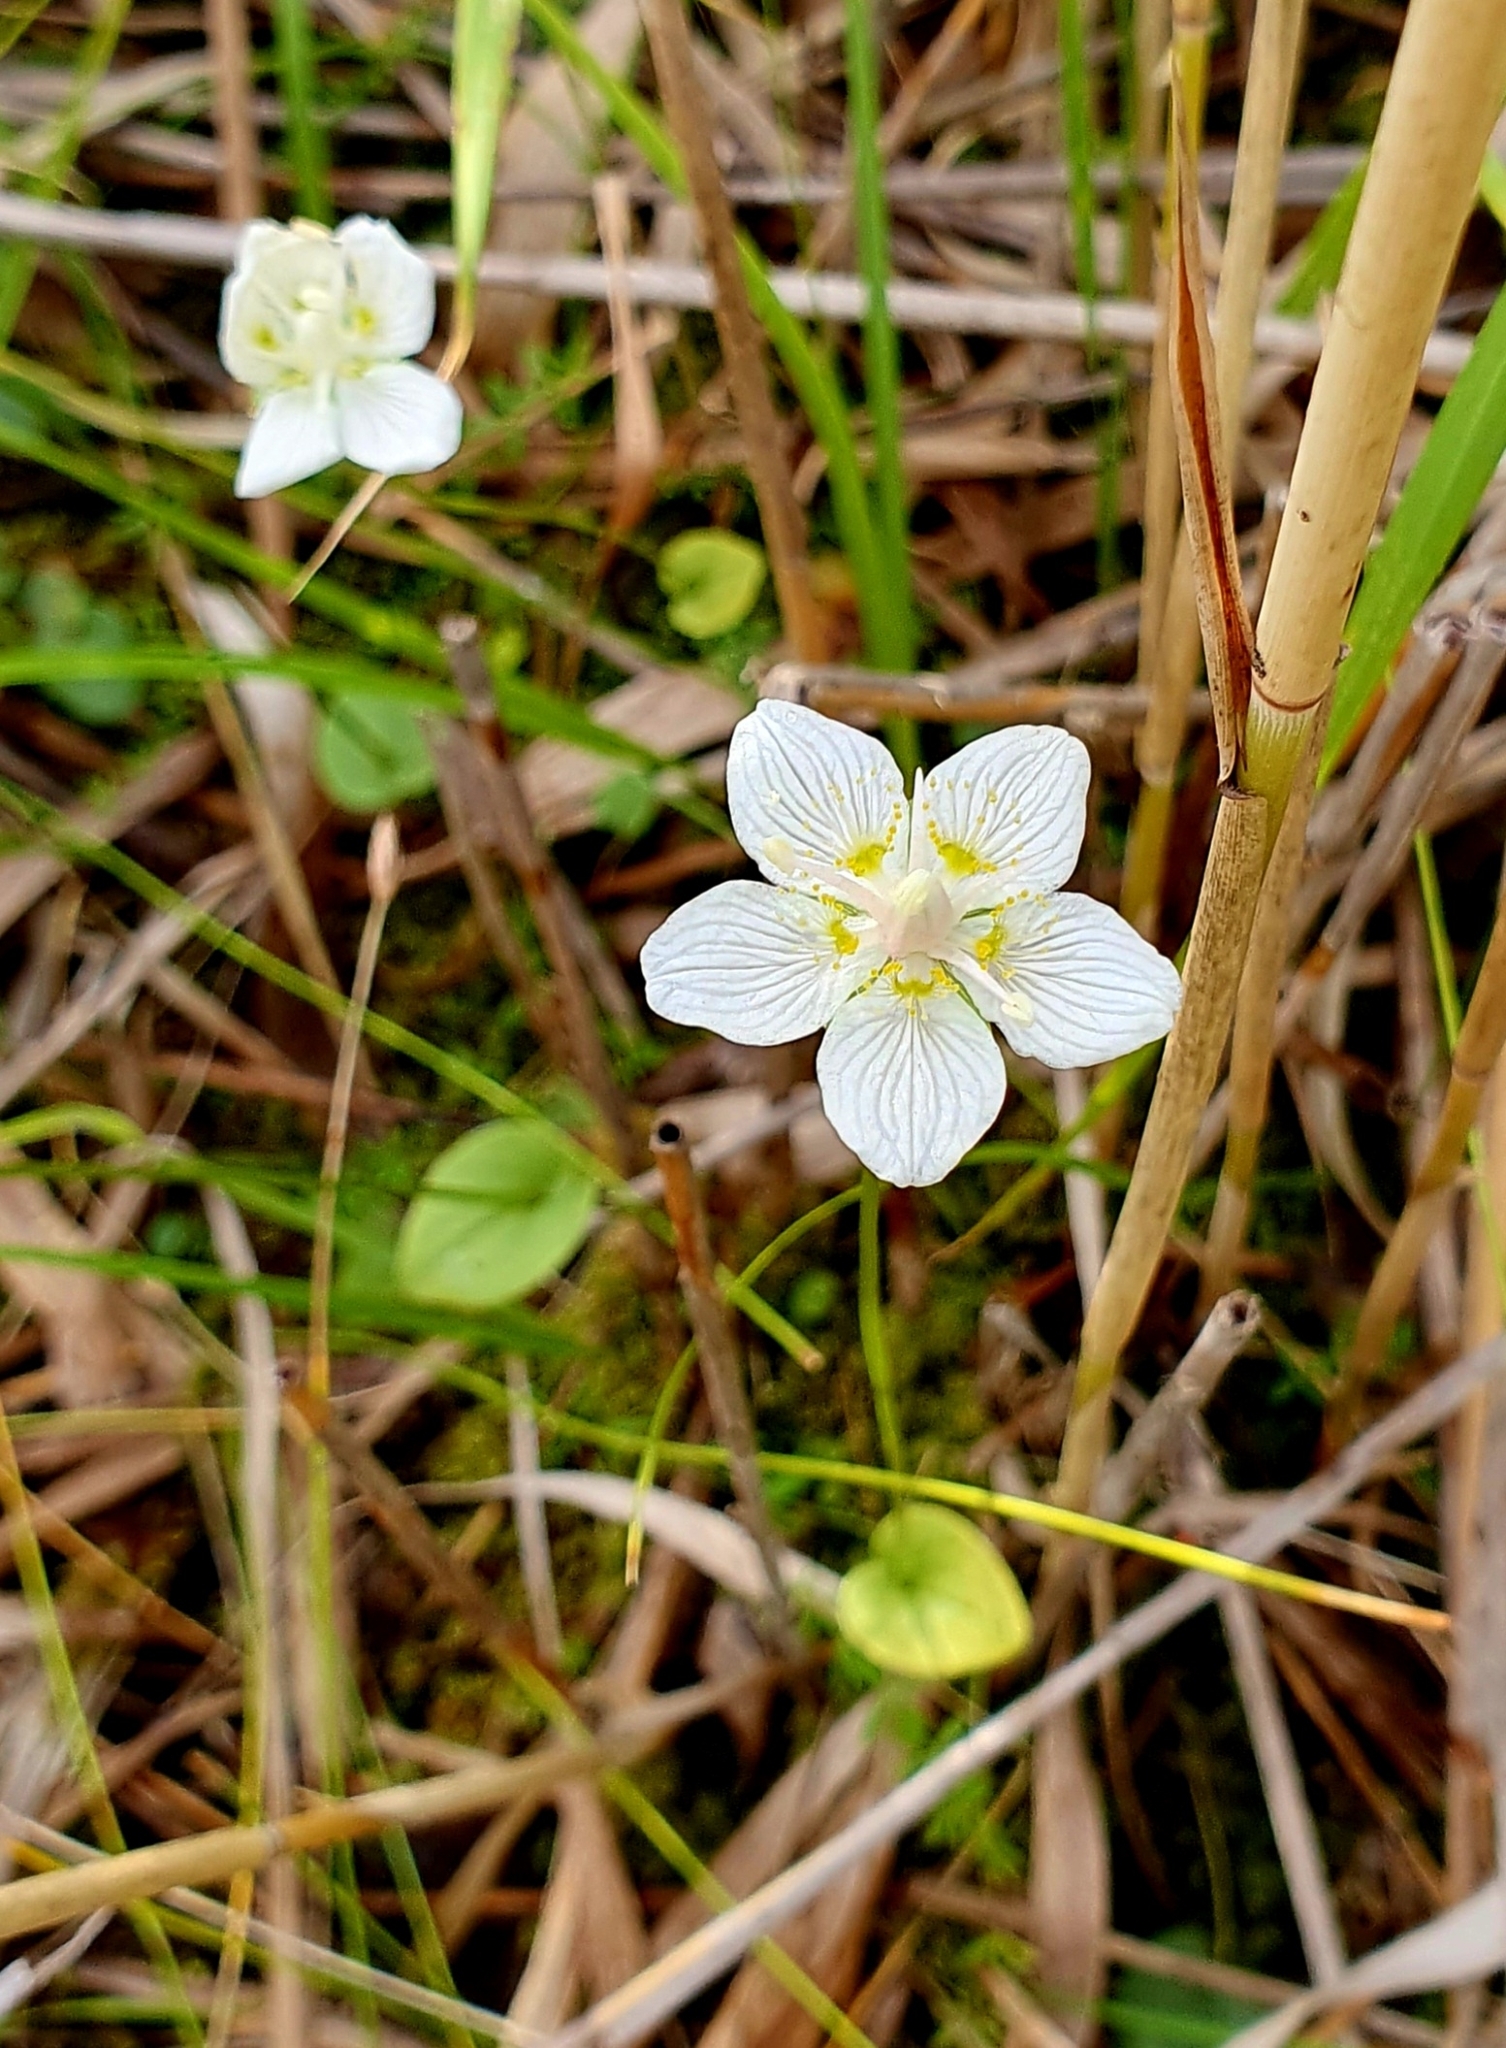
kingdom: Plantae
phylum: Tracheophyta
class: Magnoliopsida
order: Celastrales
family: Parnassiaceae
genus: Parnassia
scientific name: Parnassia palustris
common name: Grass-of-parnassus
